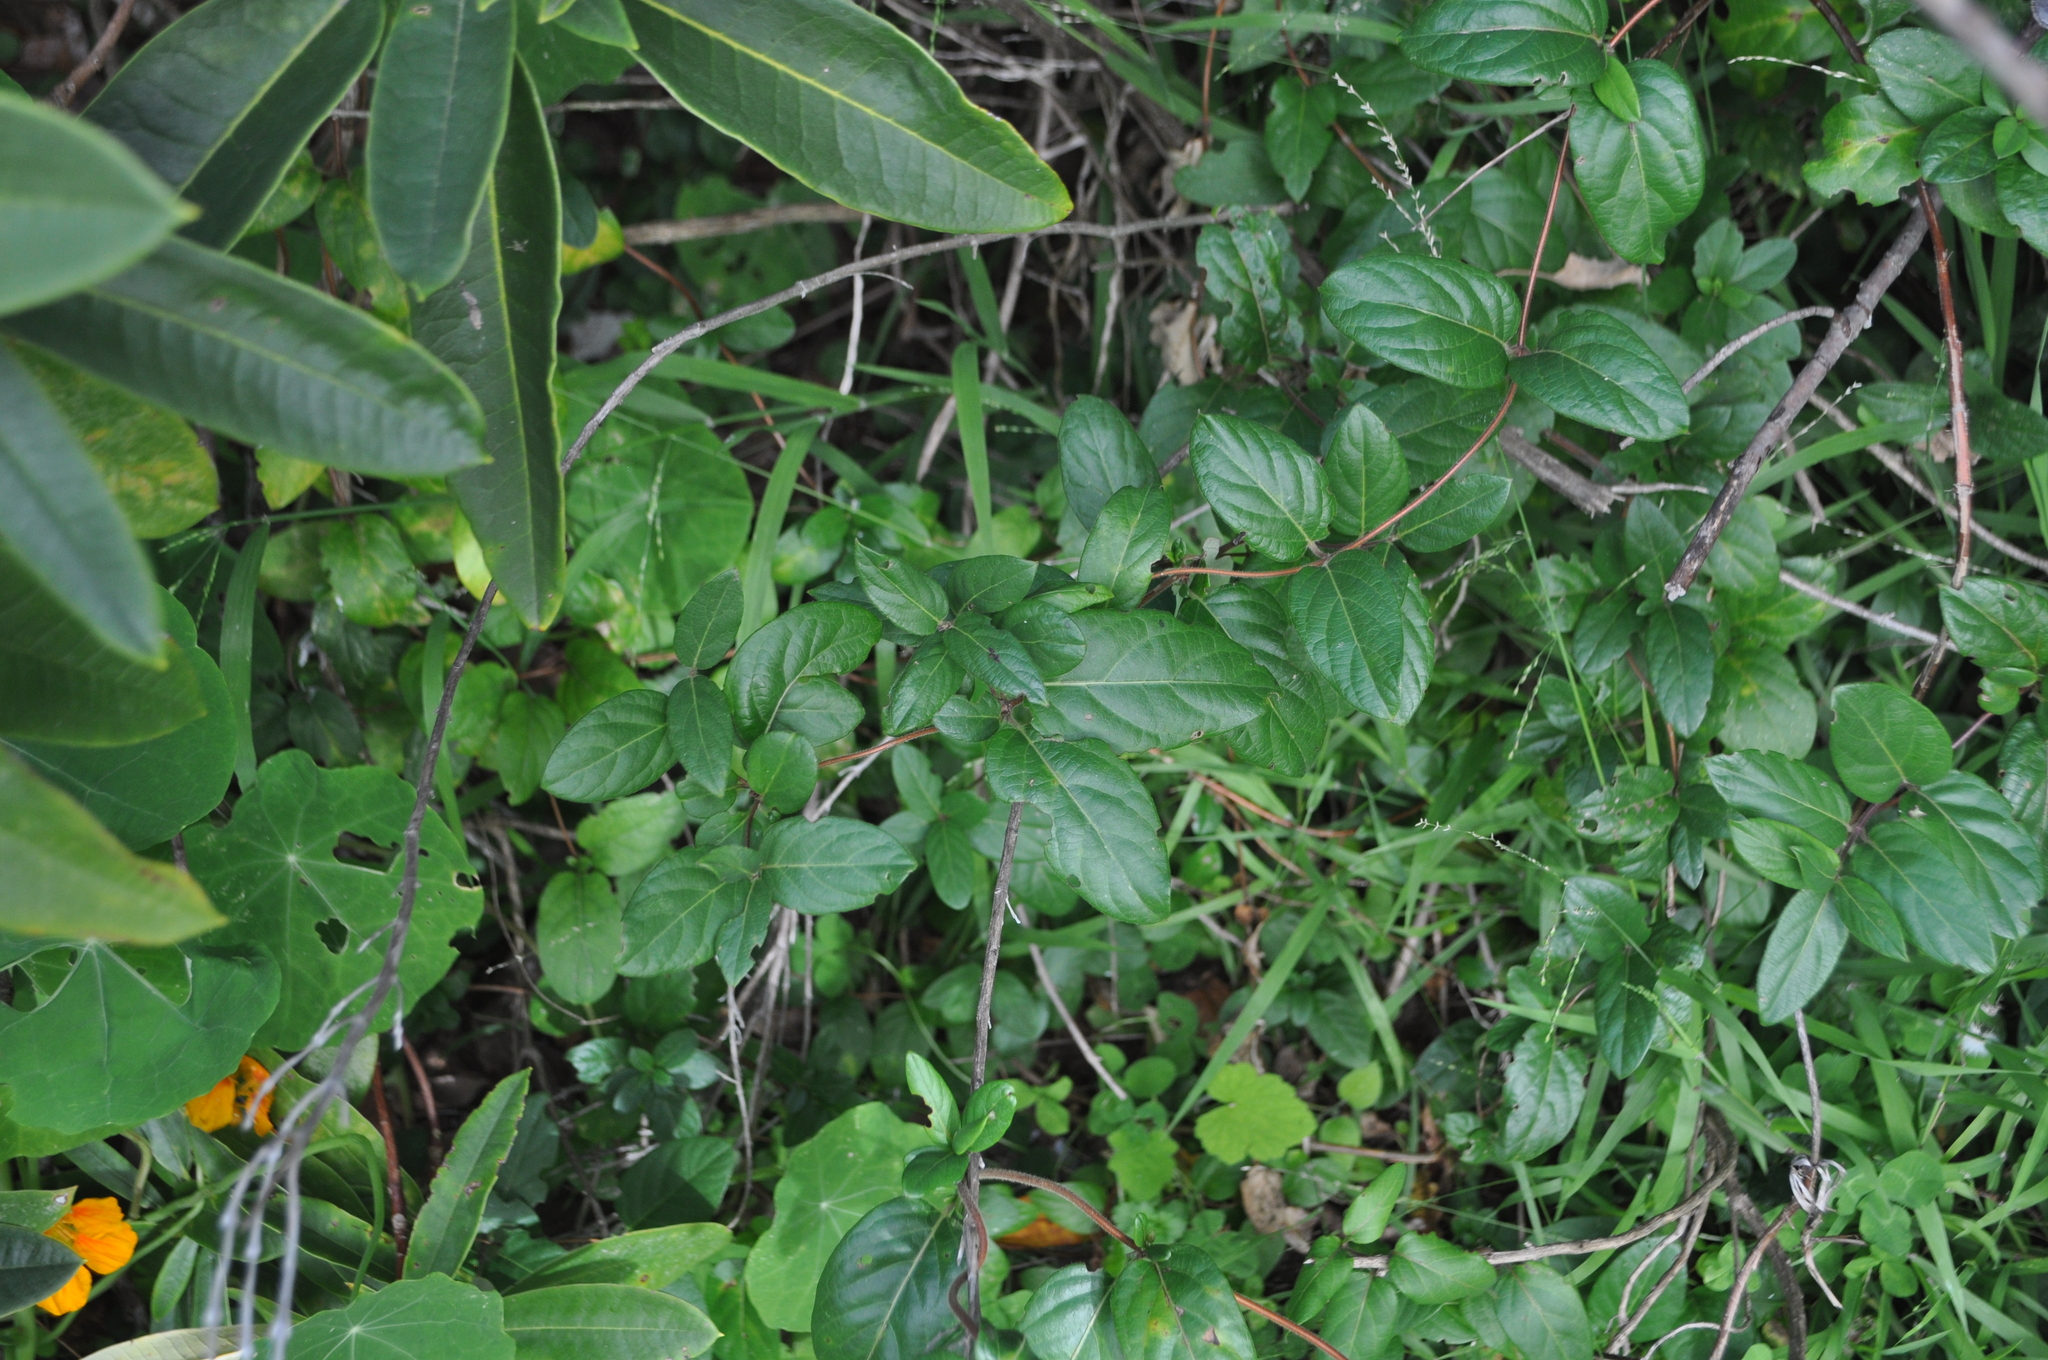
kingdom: Plantae
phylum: Tracheophyta
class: Magnoliopsida
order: Dipsacales
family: Caprifoliaceae
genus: Lonicera
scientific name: Lonicera japonica
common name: Japanese honeysuckle
